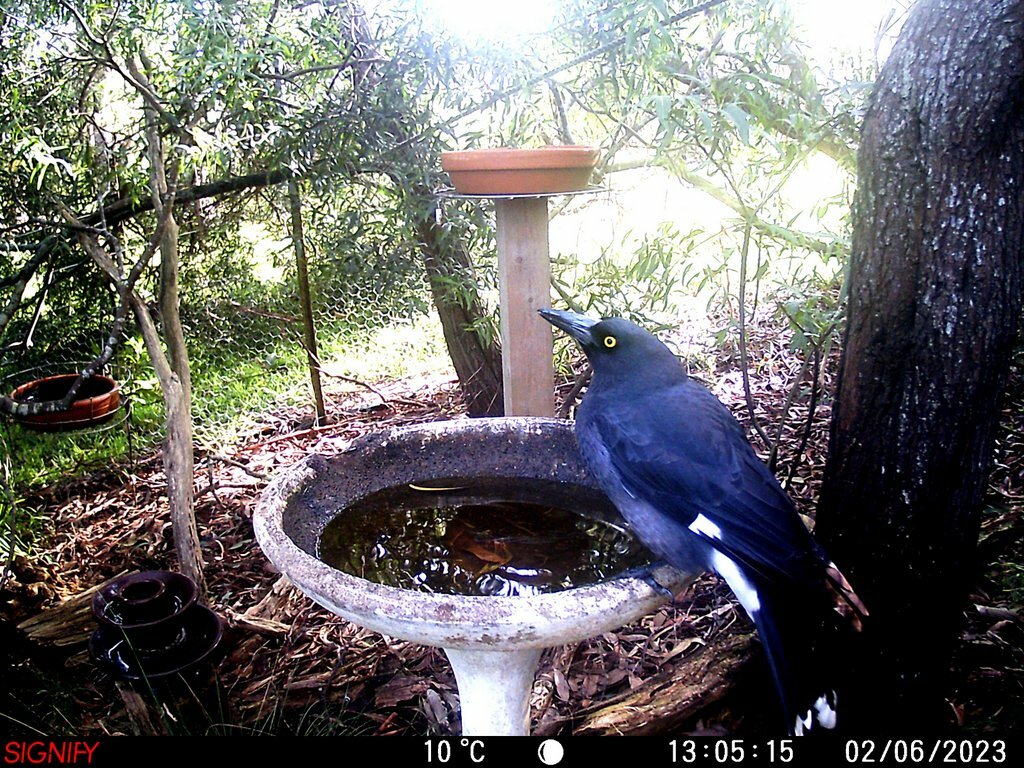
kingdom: Animalia
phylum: Chordata
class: Aves
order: Passeriformes
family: Cracticidae
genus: Strepera
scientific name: Strepera graculina
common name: Pied currawong
